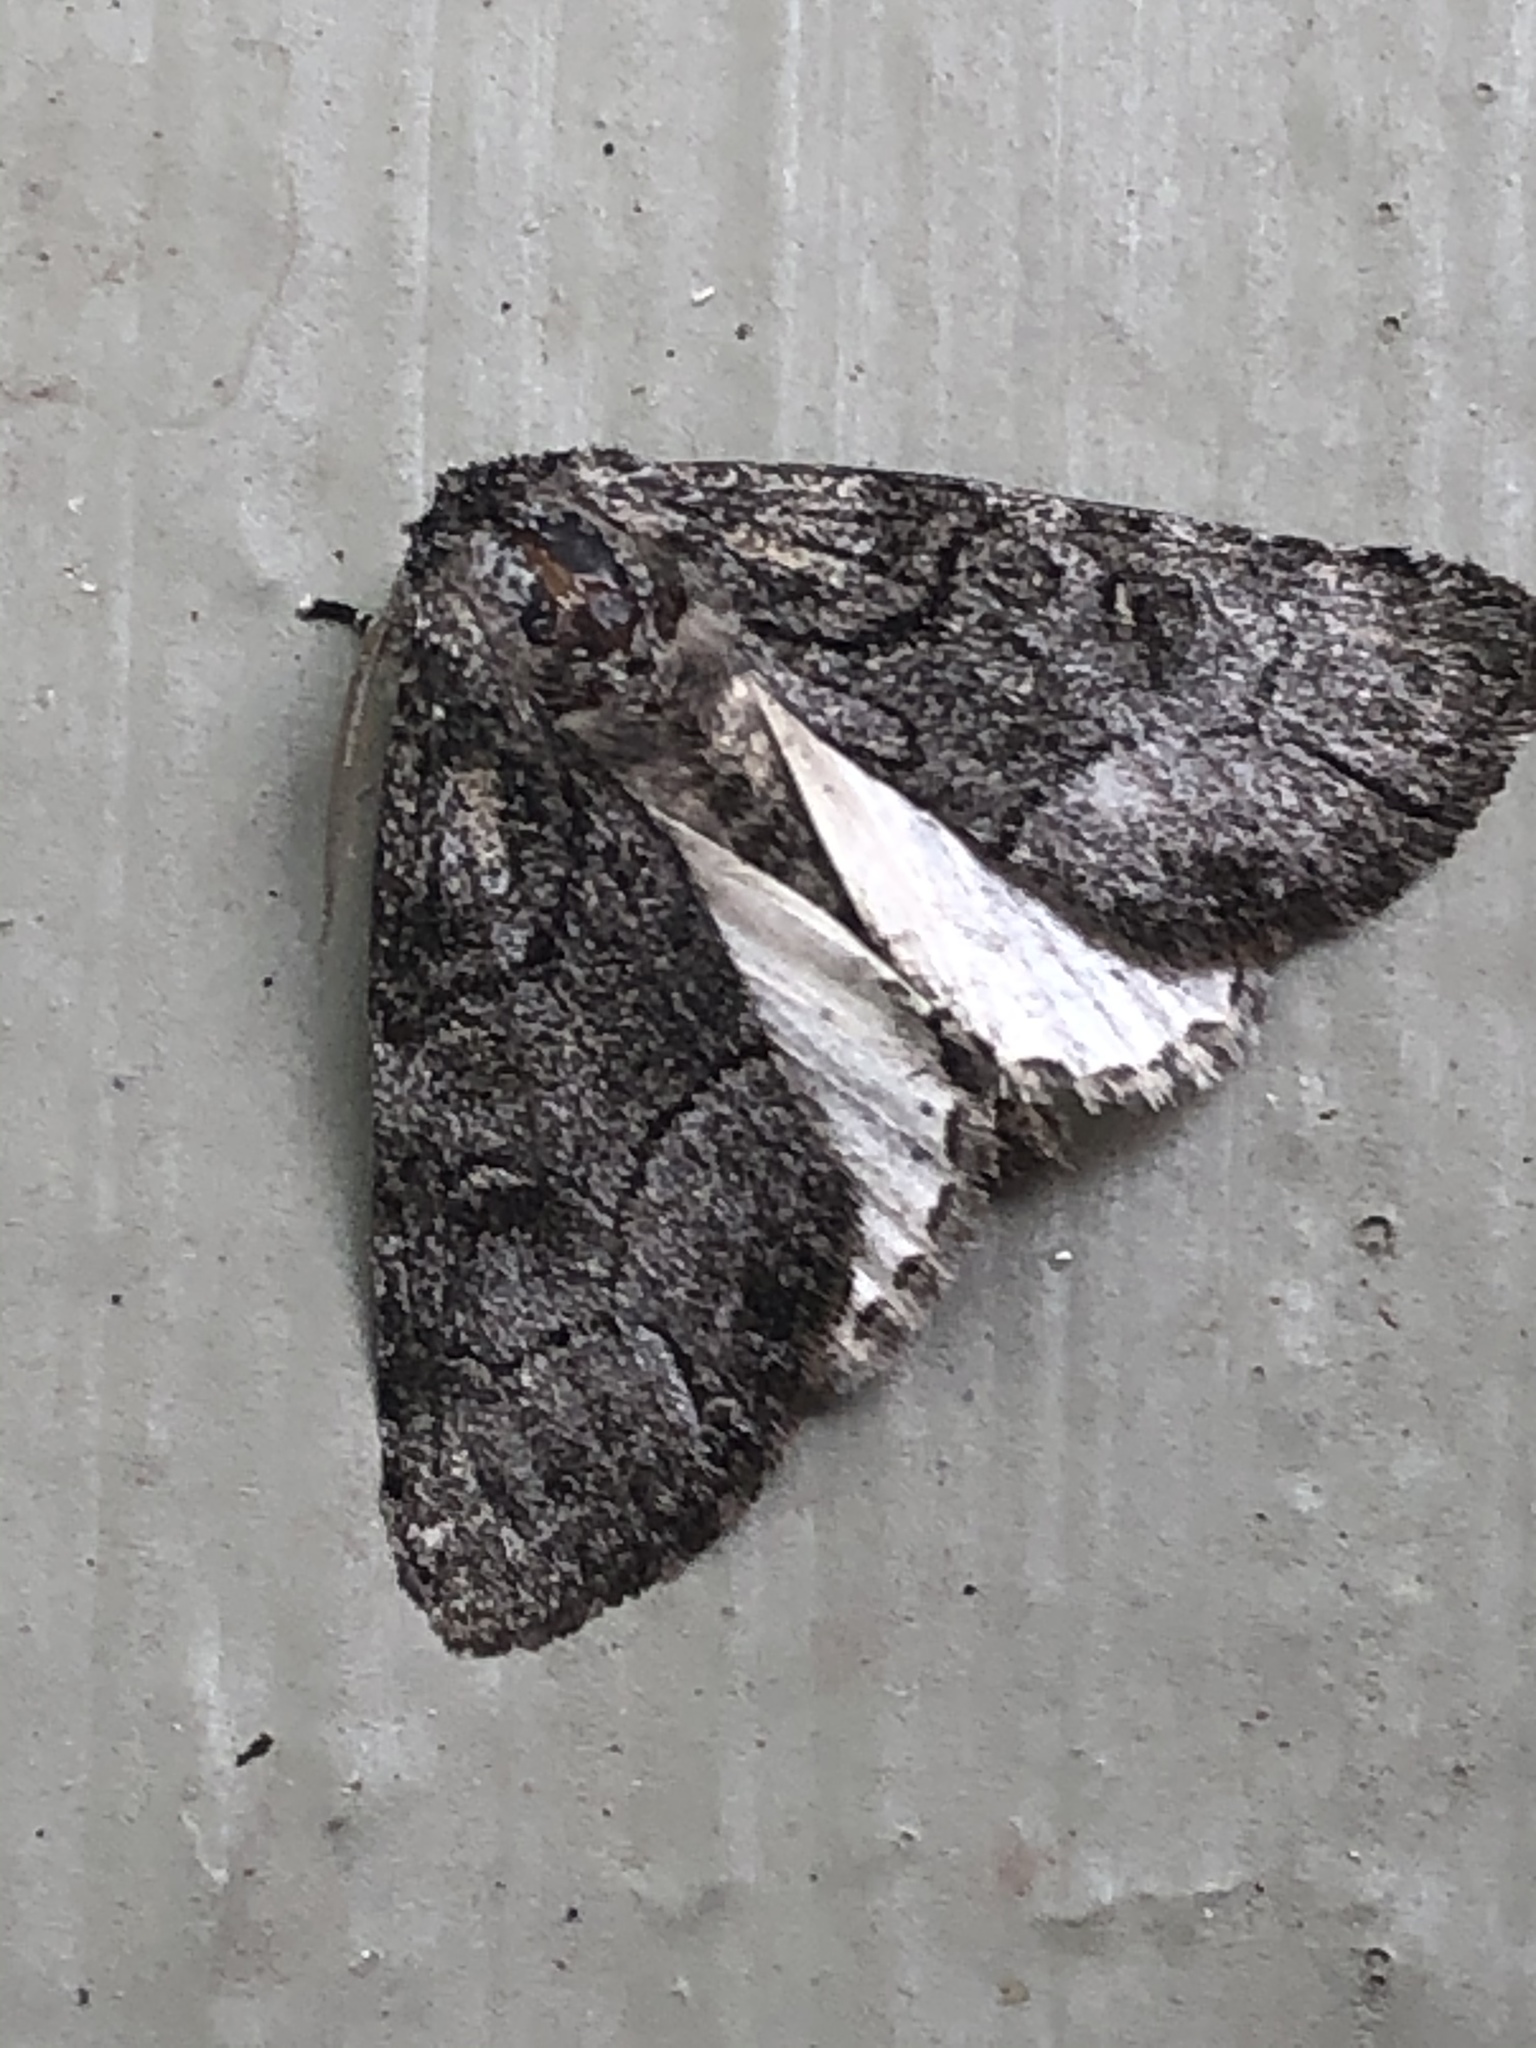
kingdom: Animalia
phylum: Arthropoda
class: Insecta
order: Lepidoptera
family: Noctuidae
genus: Raphia
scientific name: Raphia frater
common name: Brother
